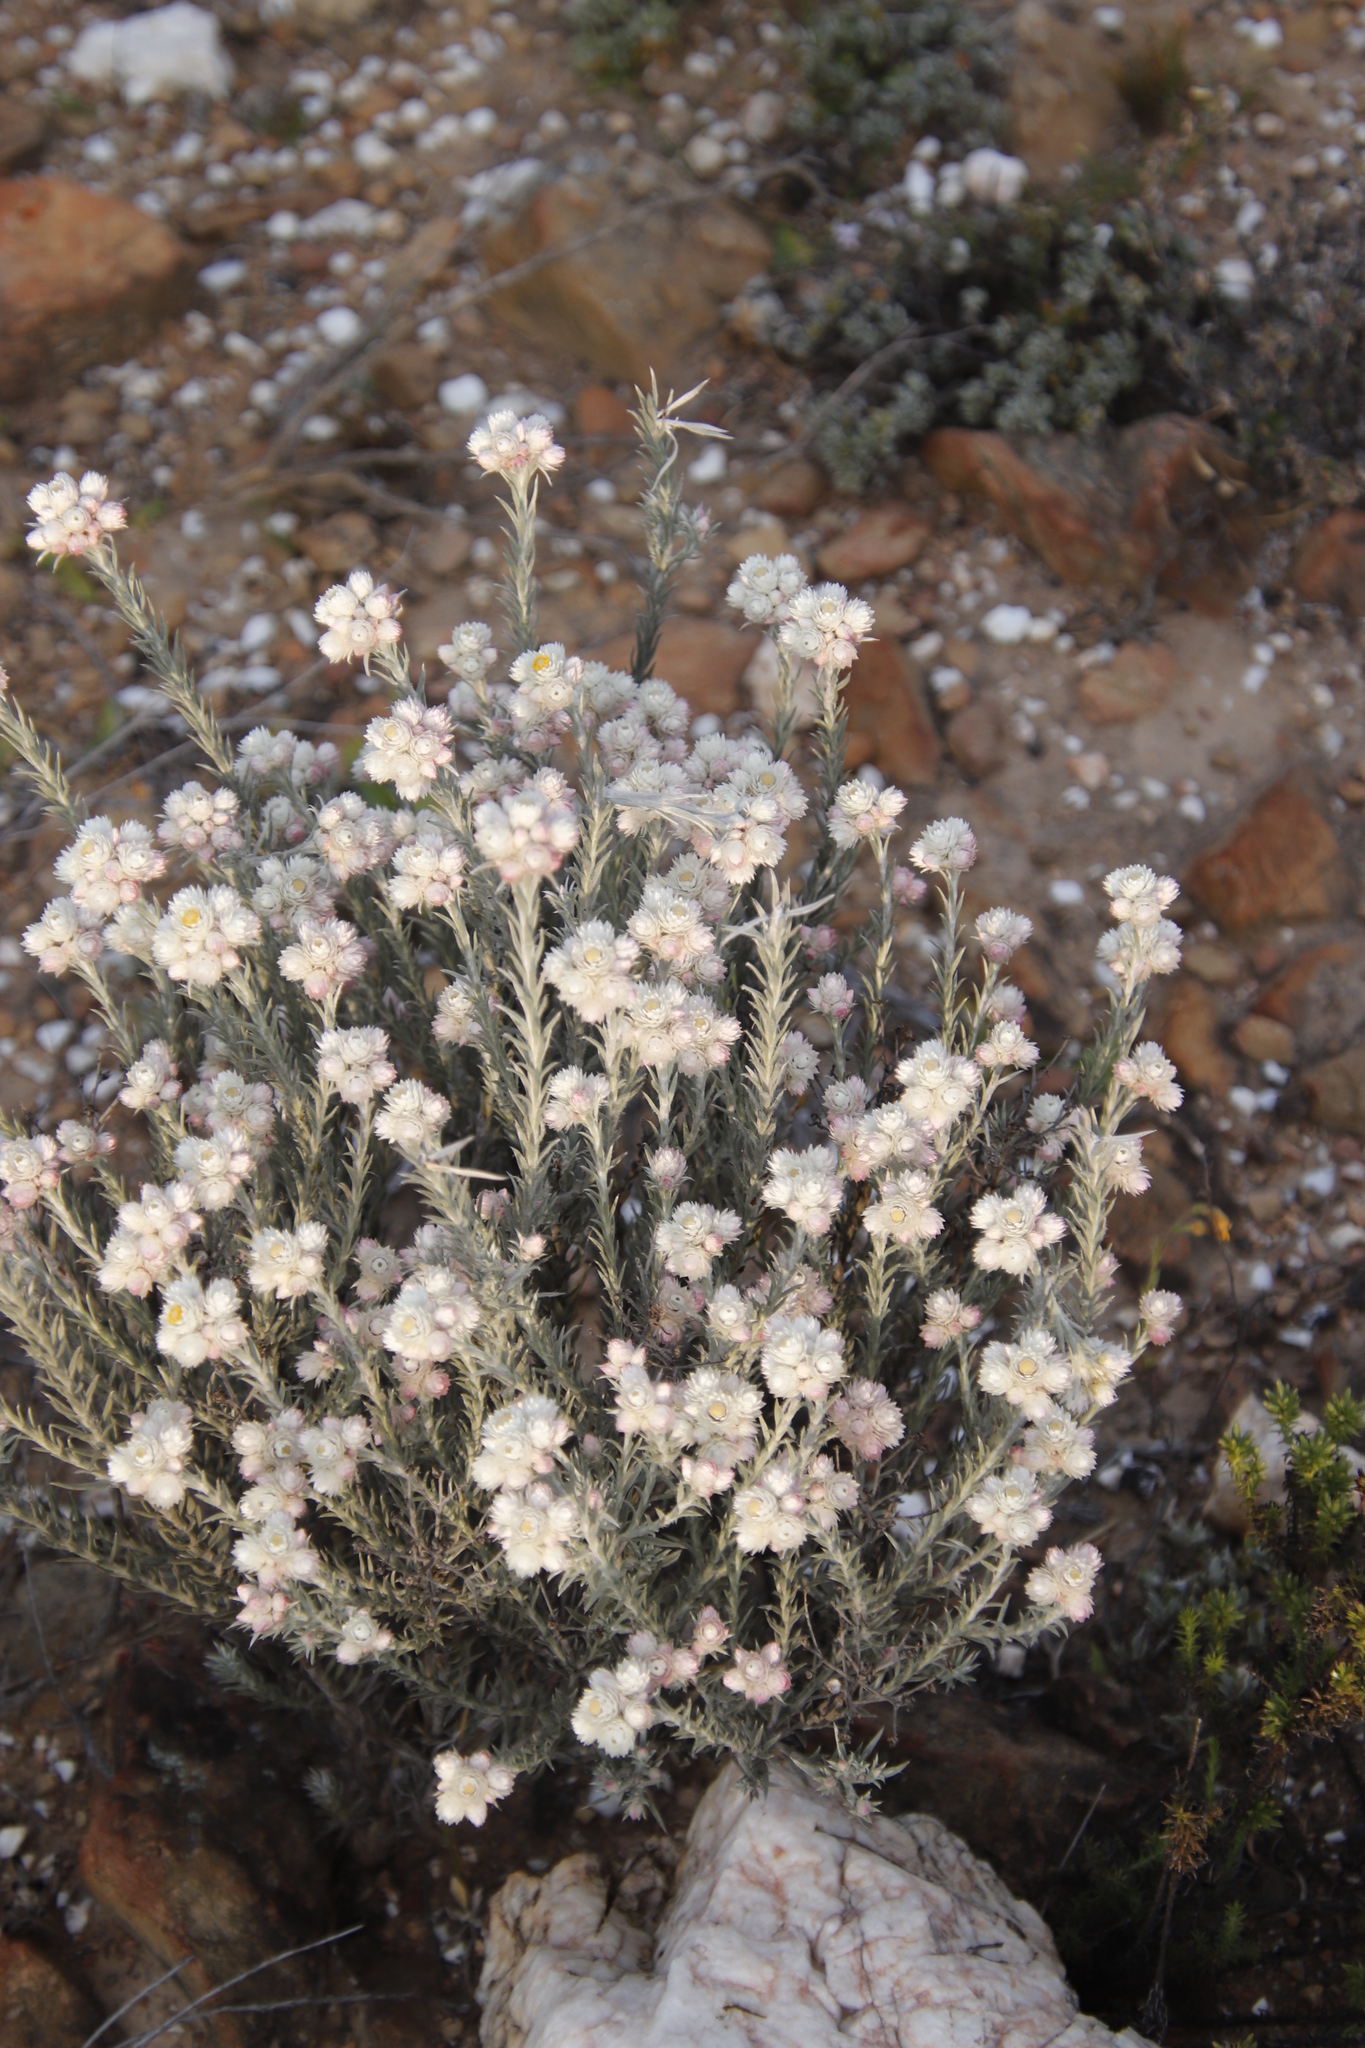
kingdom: Plantae
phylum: Tracheophyta
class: Magnoliopsida
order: Asterales
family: Asteraceae
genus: Achyranthemum
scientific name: Achyranthemum paniculatum
